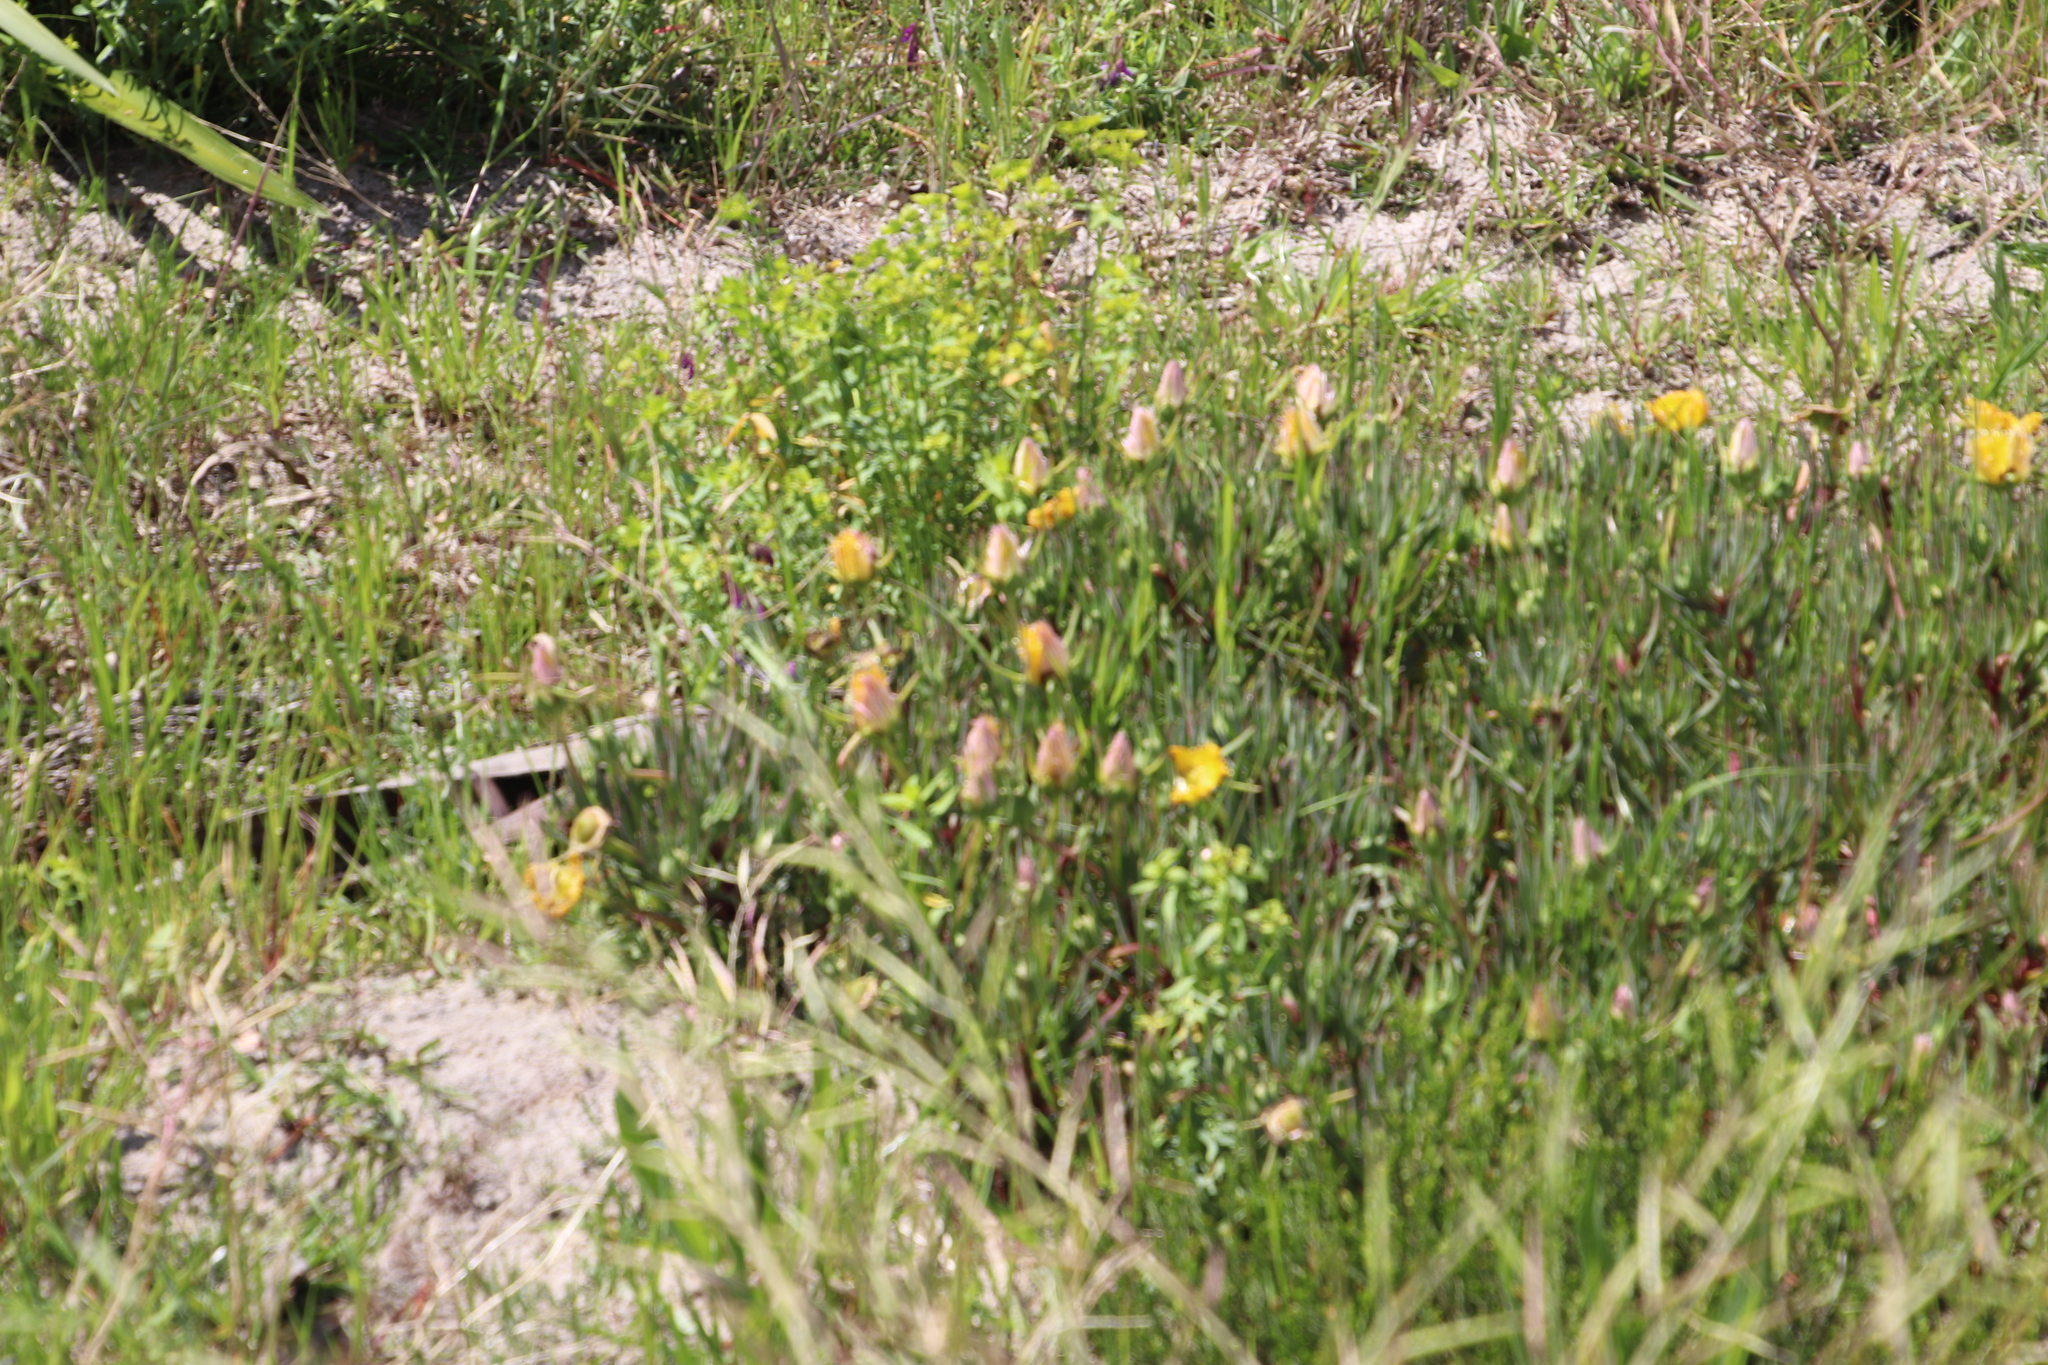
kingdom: Plantae
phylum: Tracheophyta
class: Magnoliopsida
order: Caryophyllales
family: Aizoaceae
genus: Conicosia
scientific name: Conicosia pugioniformis
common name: Narrow-leaved iceplant
